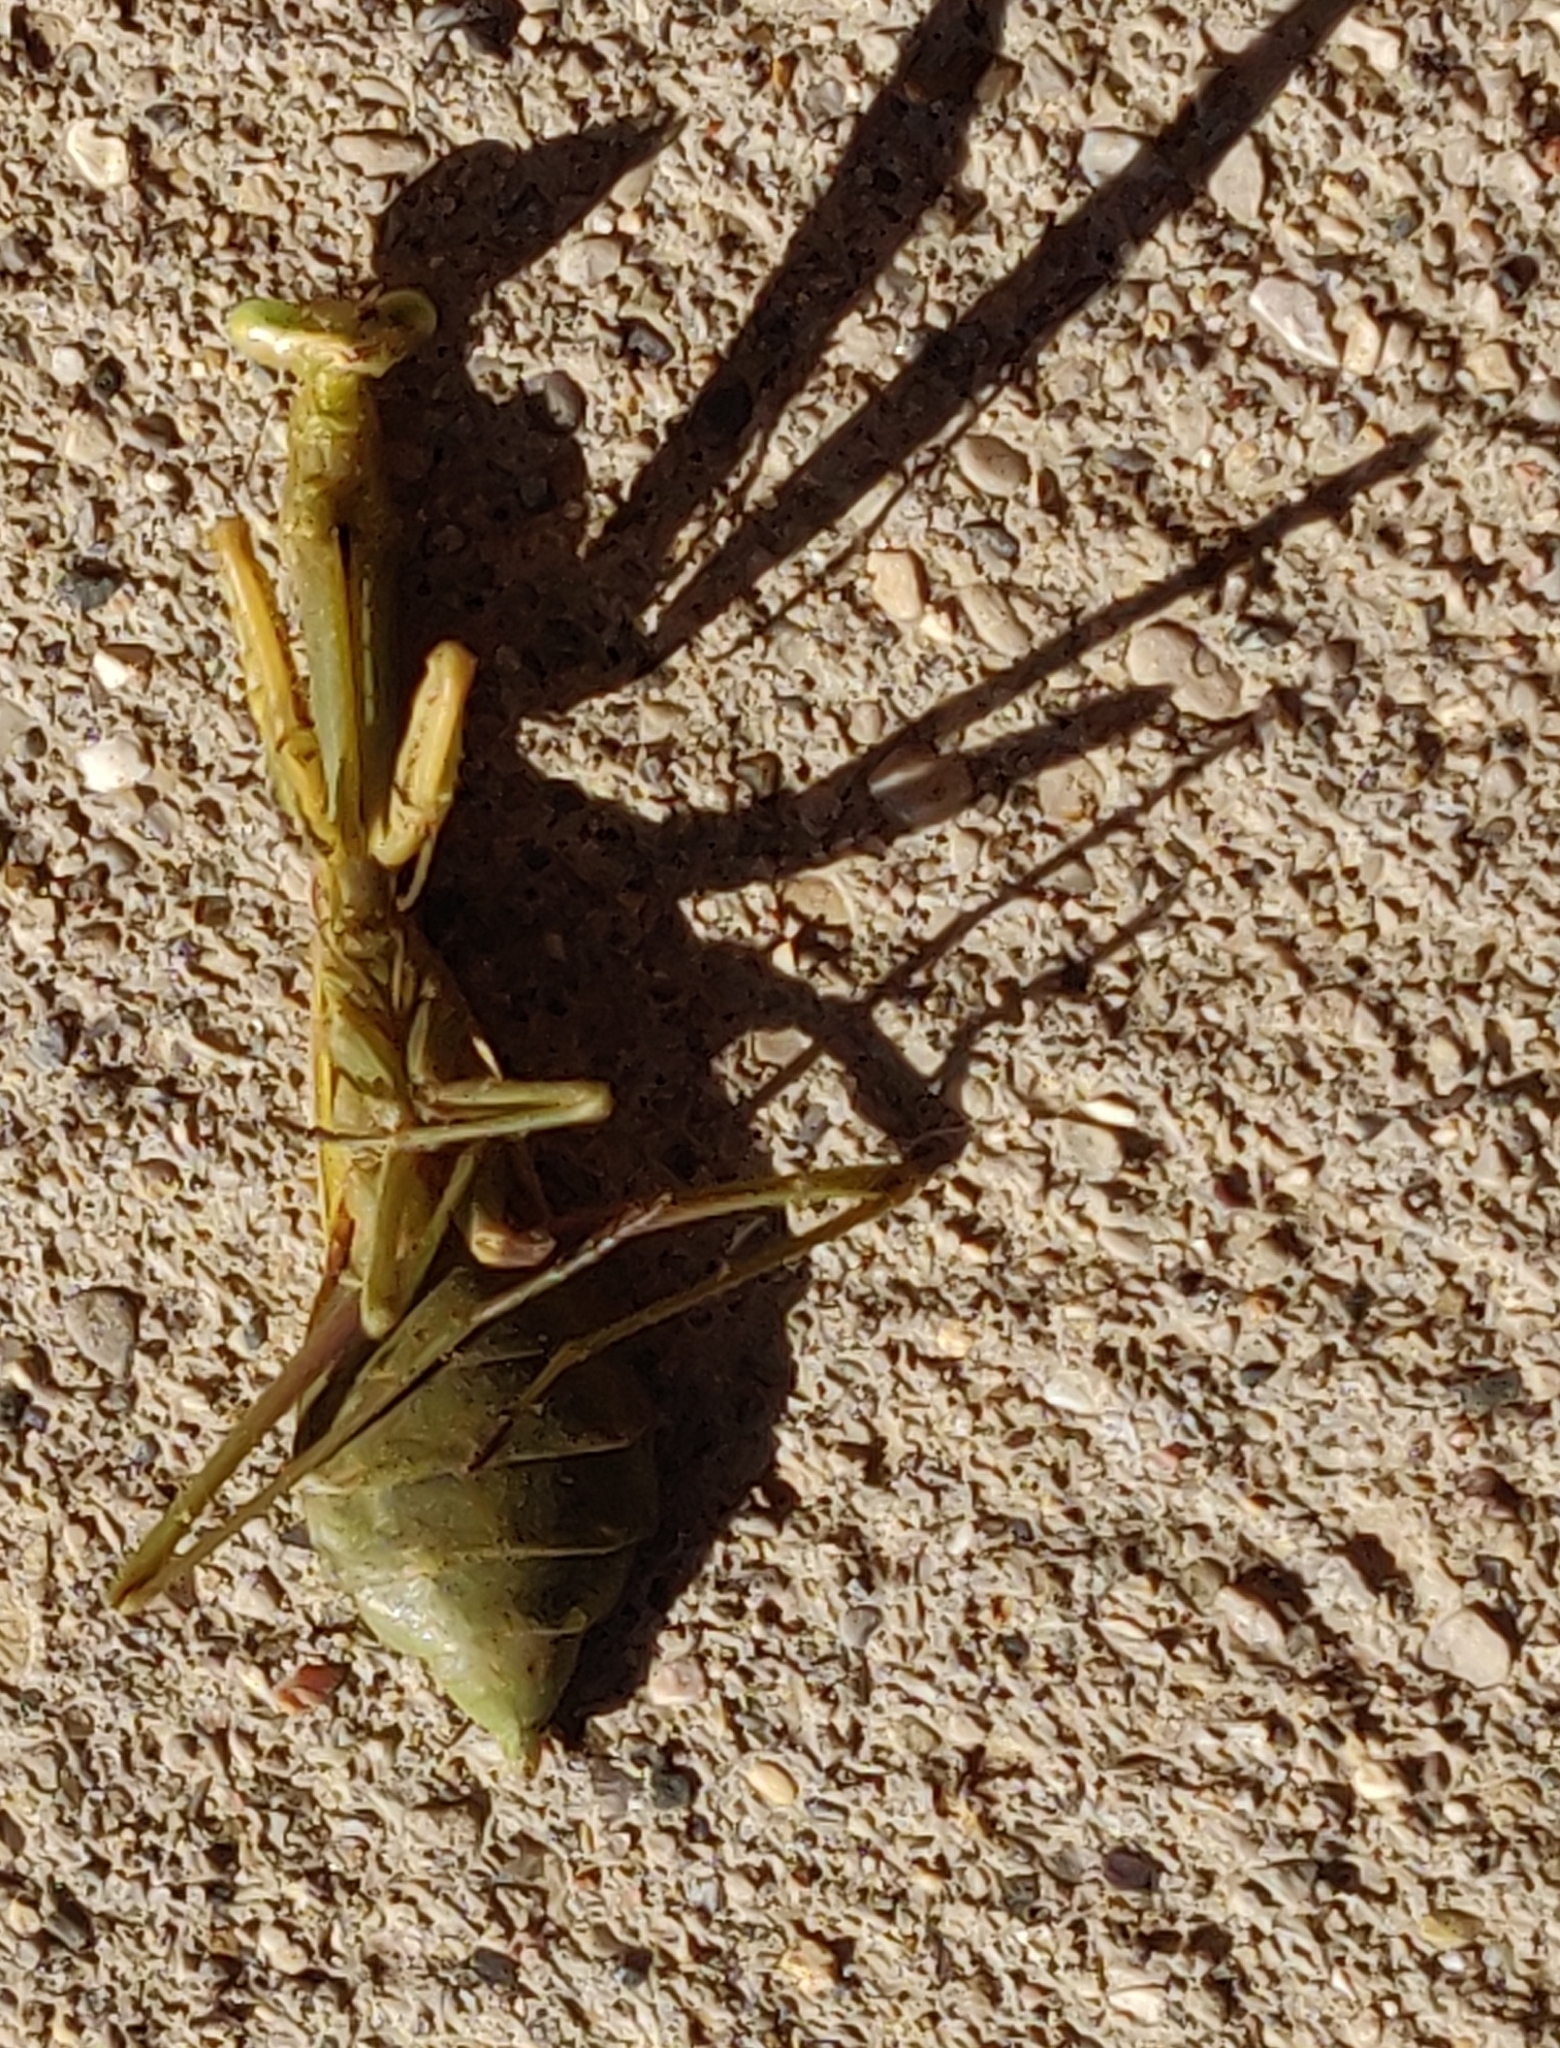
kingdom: Animalia
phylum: Arthropoda
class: Insecta
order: Mantodea
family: Mantidae
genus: Stagmomantis
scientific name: Stagmomantis carolina
